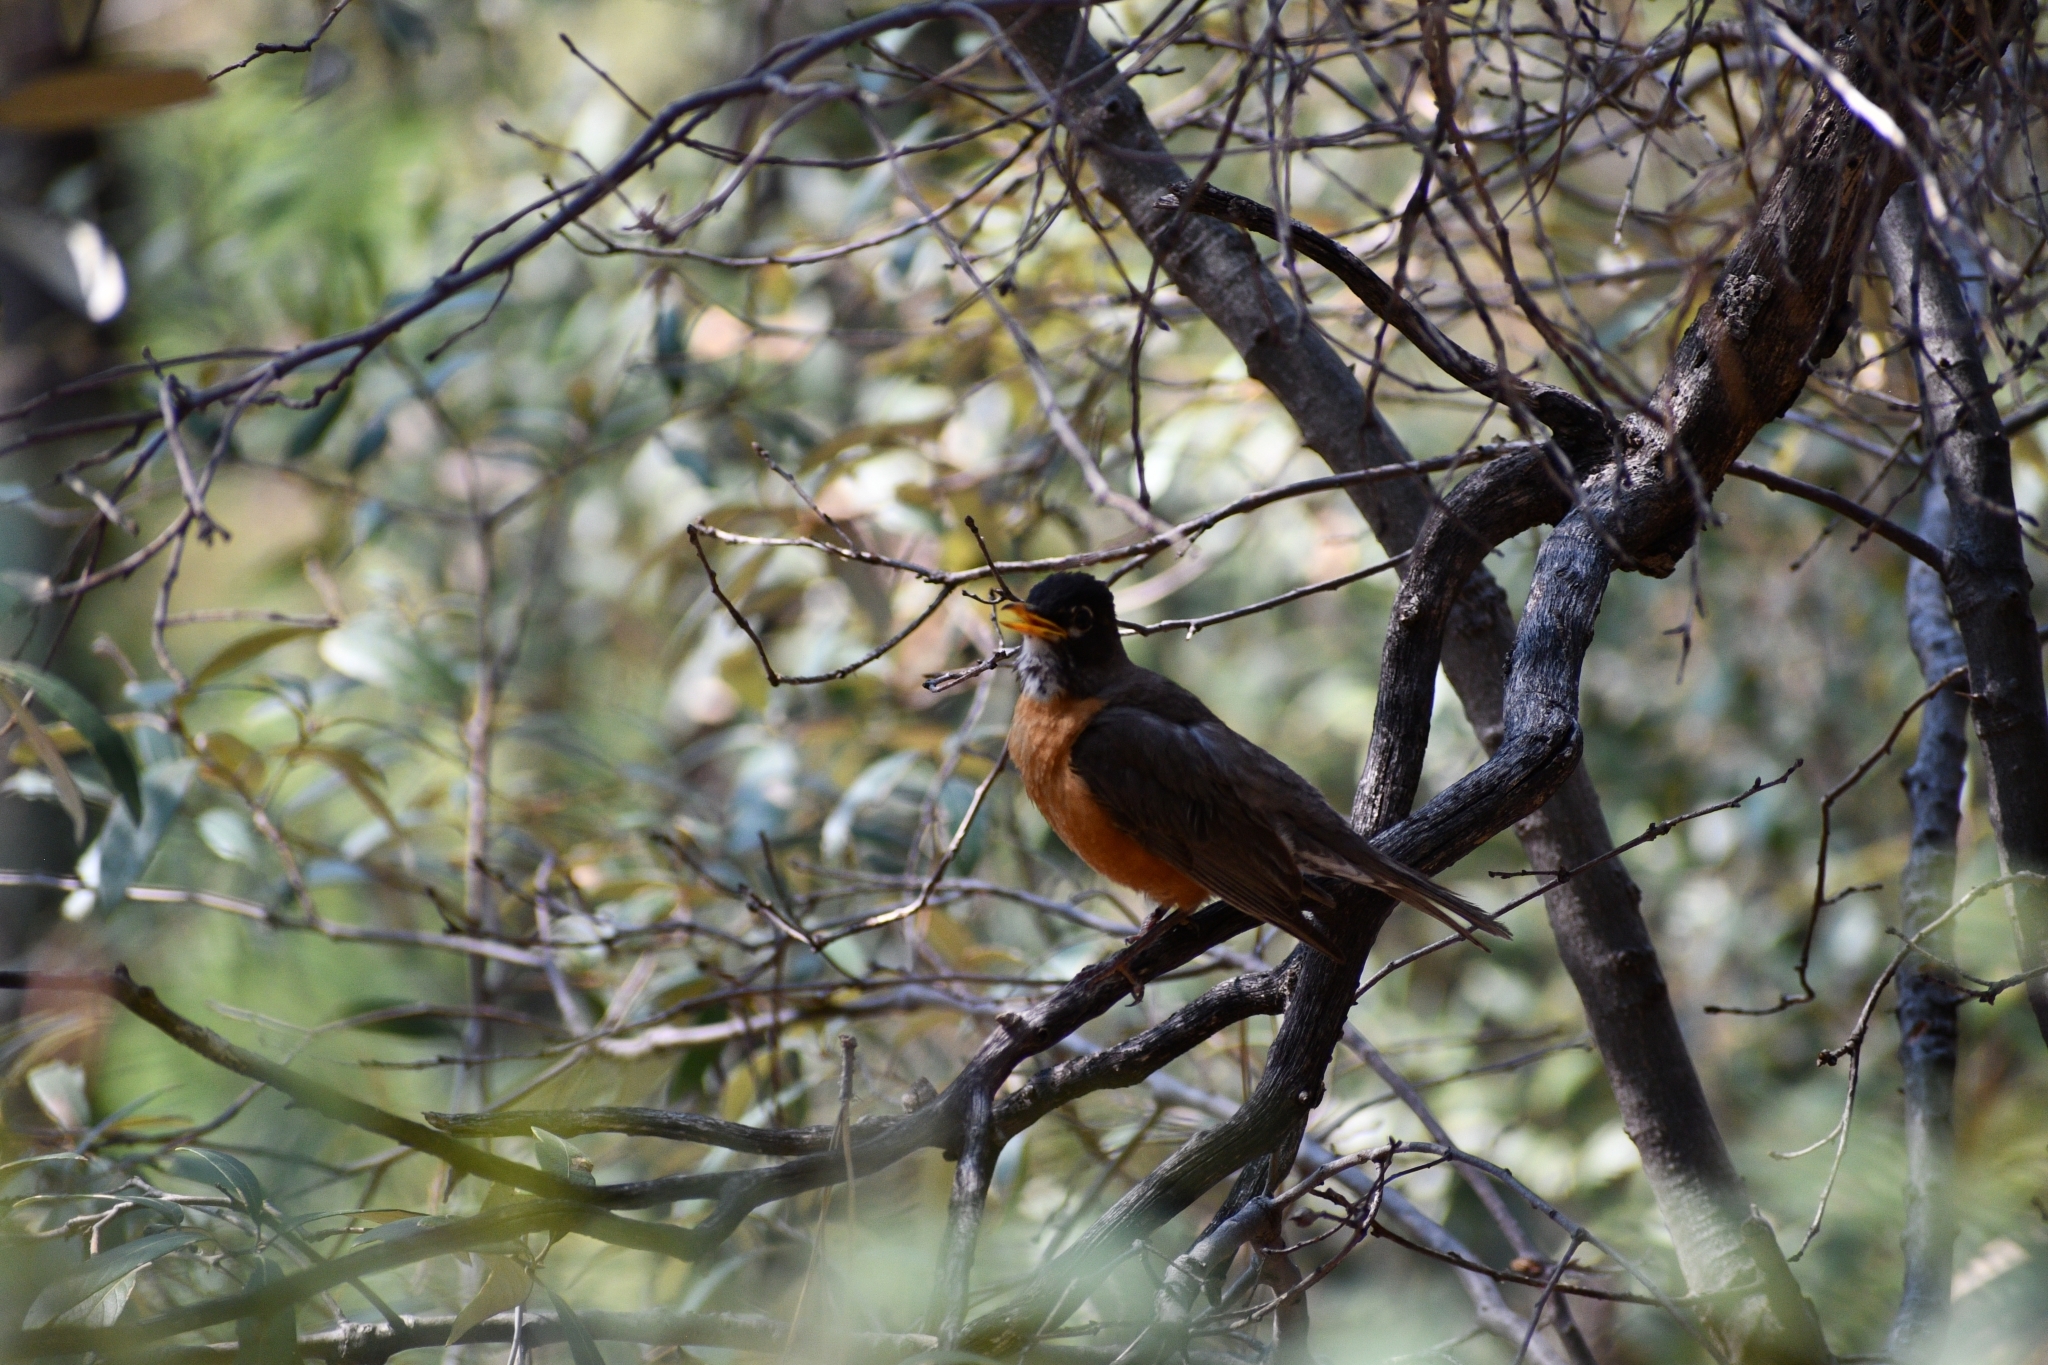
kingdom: Animalia
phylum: Chordata
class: Aves
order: Passeriformes
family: Turdidae
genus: Turdus
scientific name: Turdus migratorius
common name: American robin
